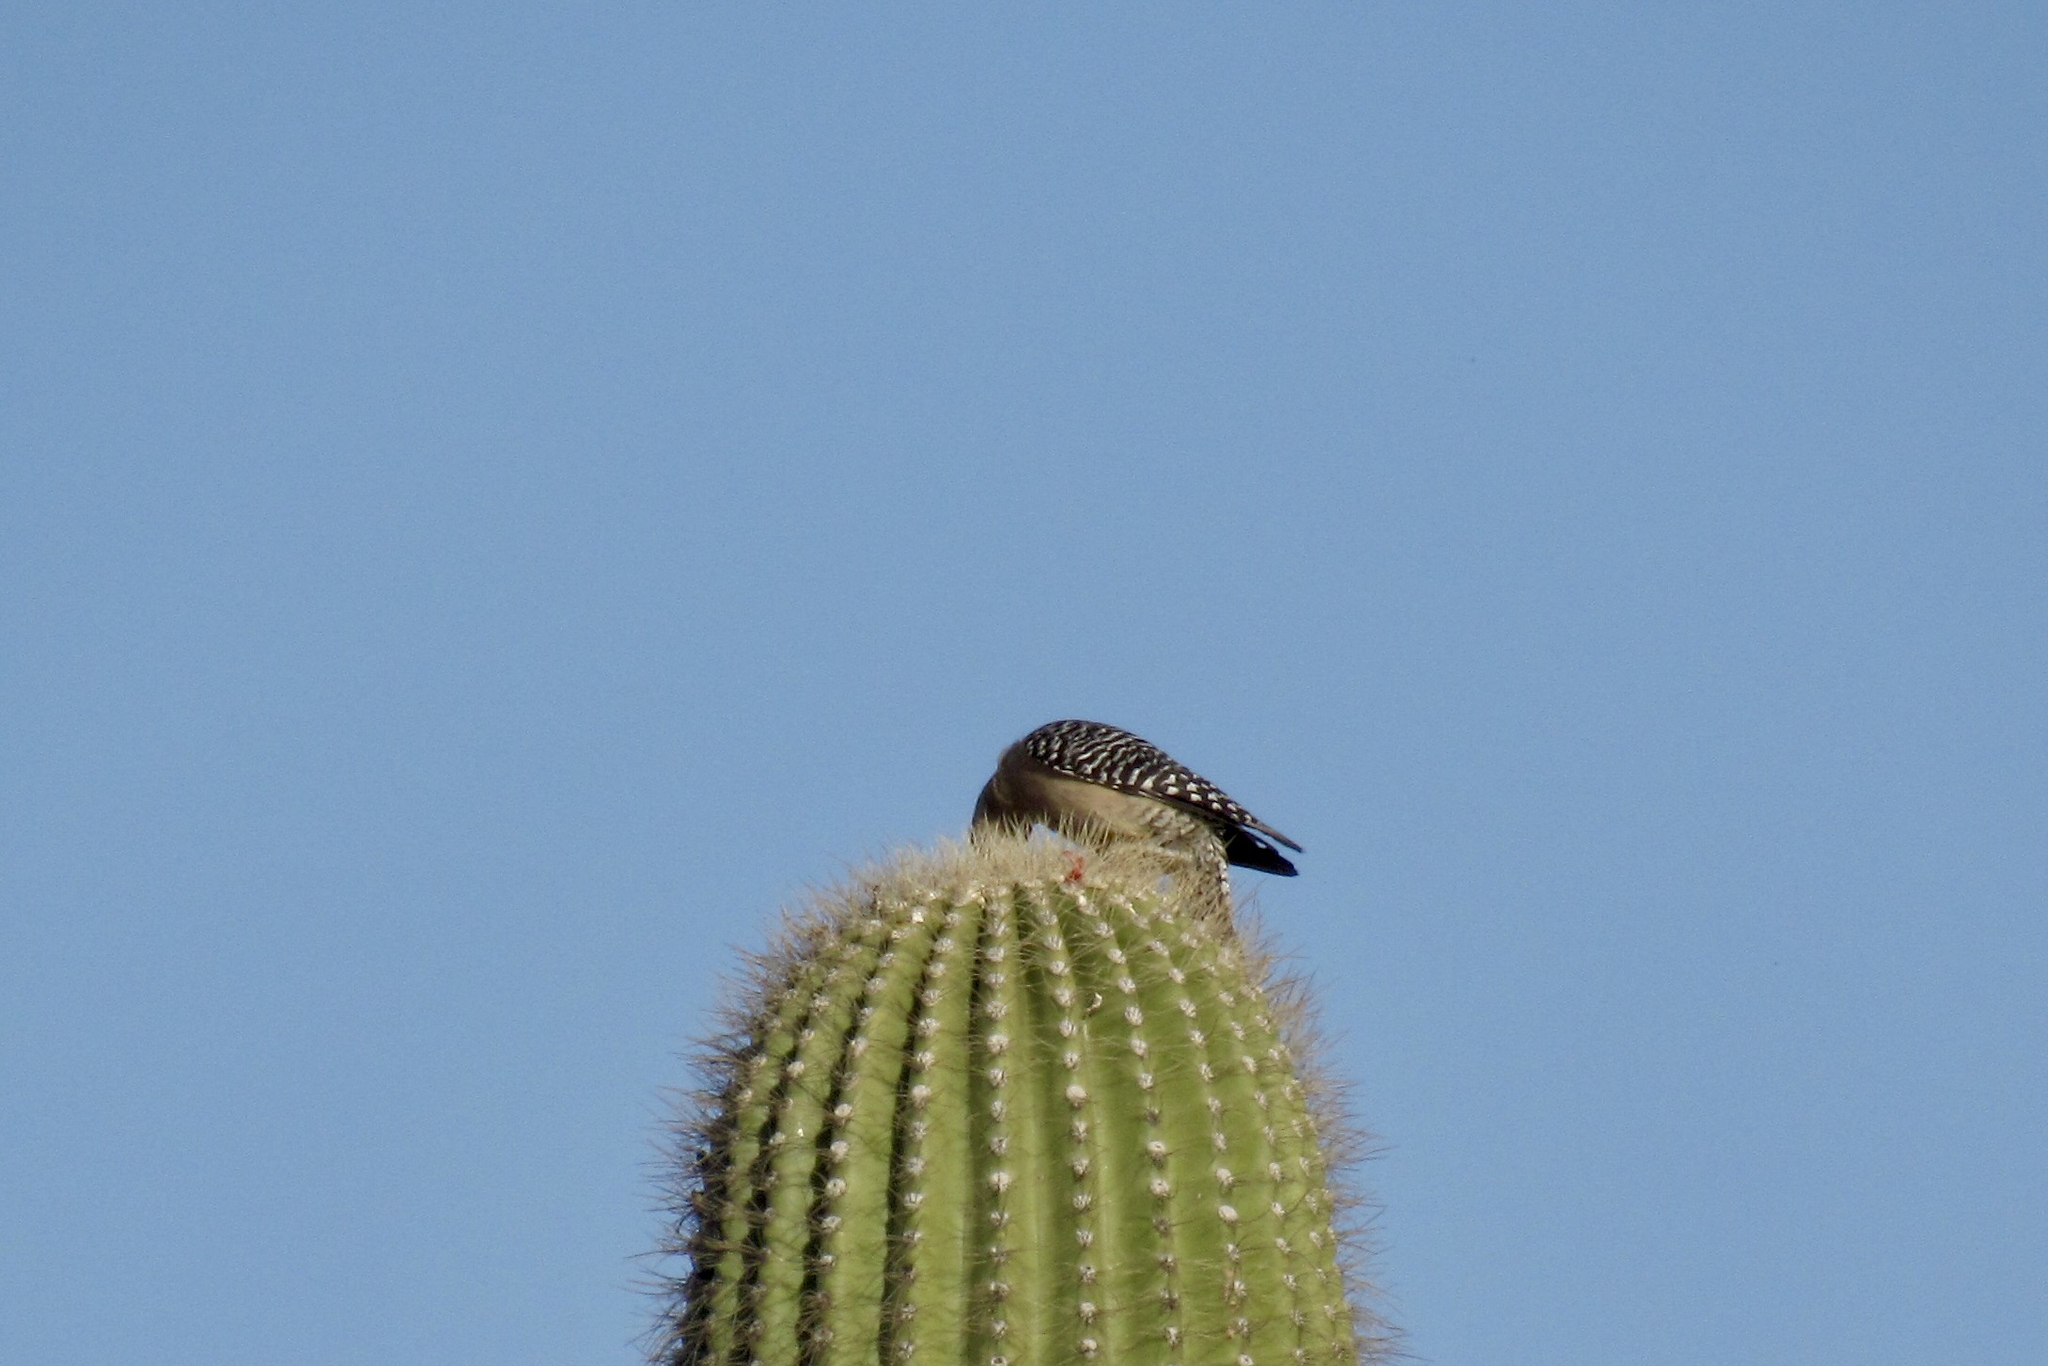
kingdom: Animalia
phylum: Chordata
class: Aves
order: Piciformes
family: Picidae
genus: Melanerpes
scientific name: Melanerpes uropygialis
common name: Gila woodpecker
